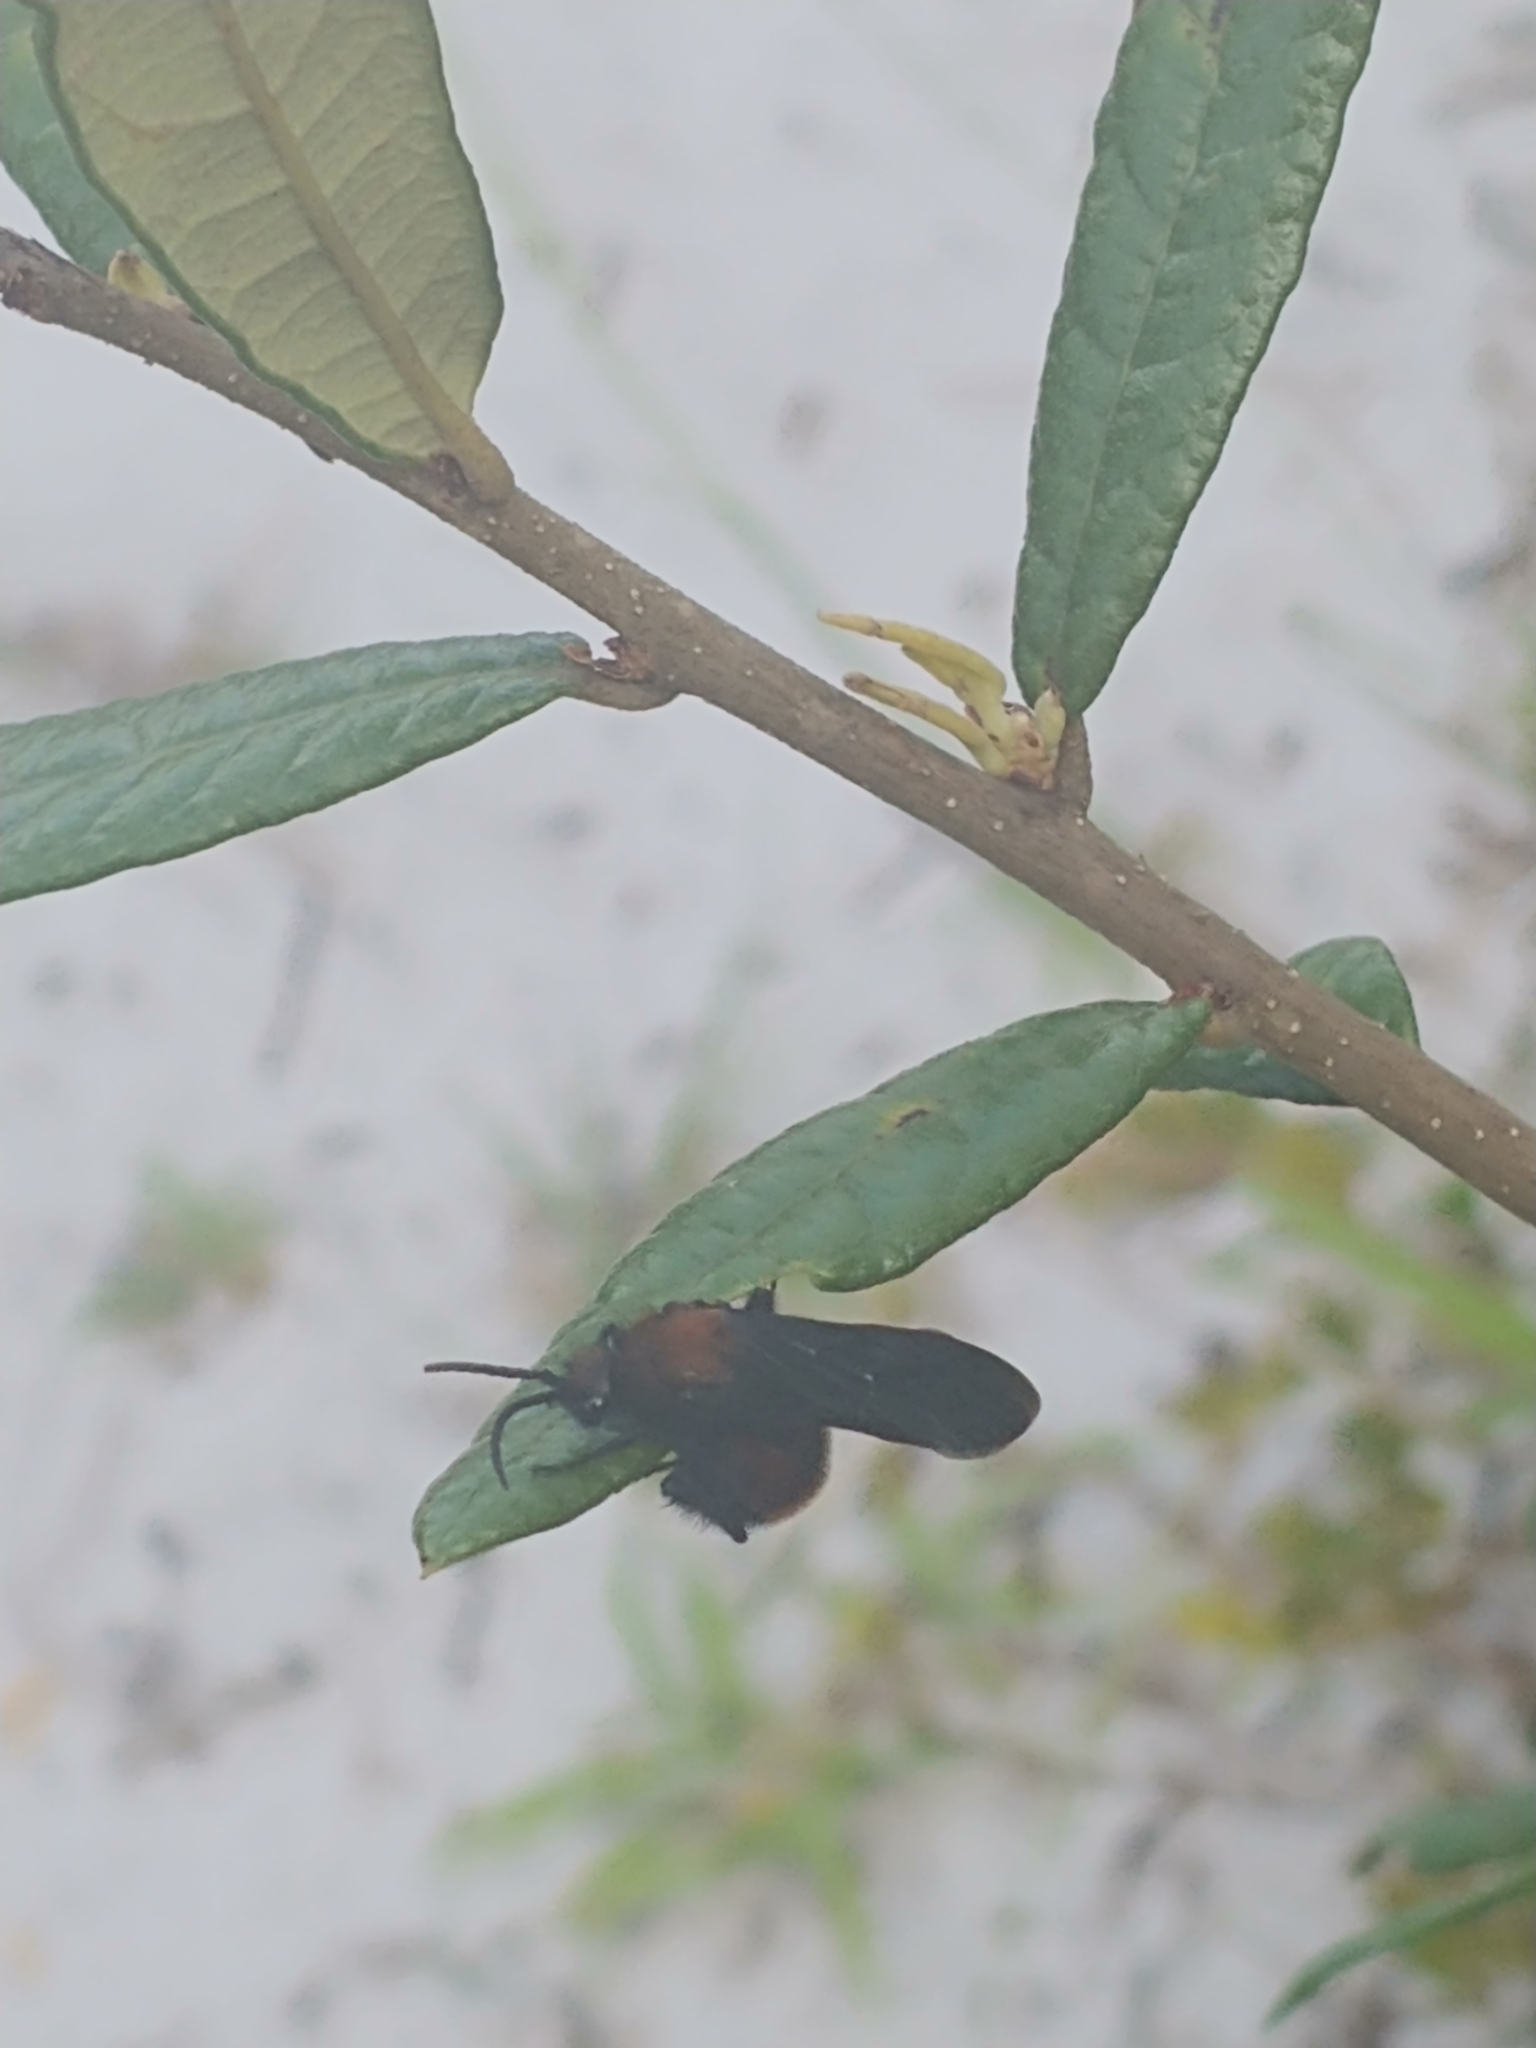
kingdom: Animalia
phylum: Arthropoda
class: Insecta
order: Hymenoptera
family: Mutillidae
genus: Dasymutilla
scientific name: Dasymutilla occidentalis
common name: Common eastern velvet ant
